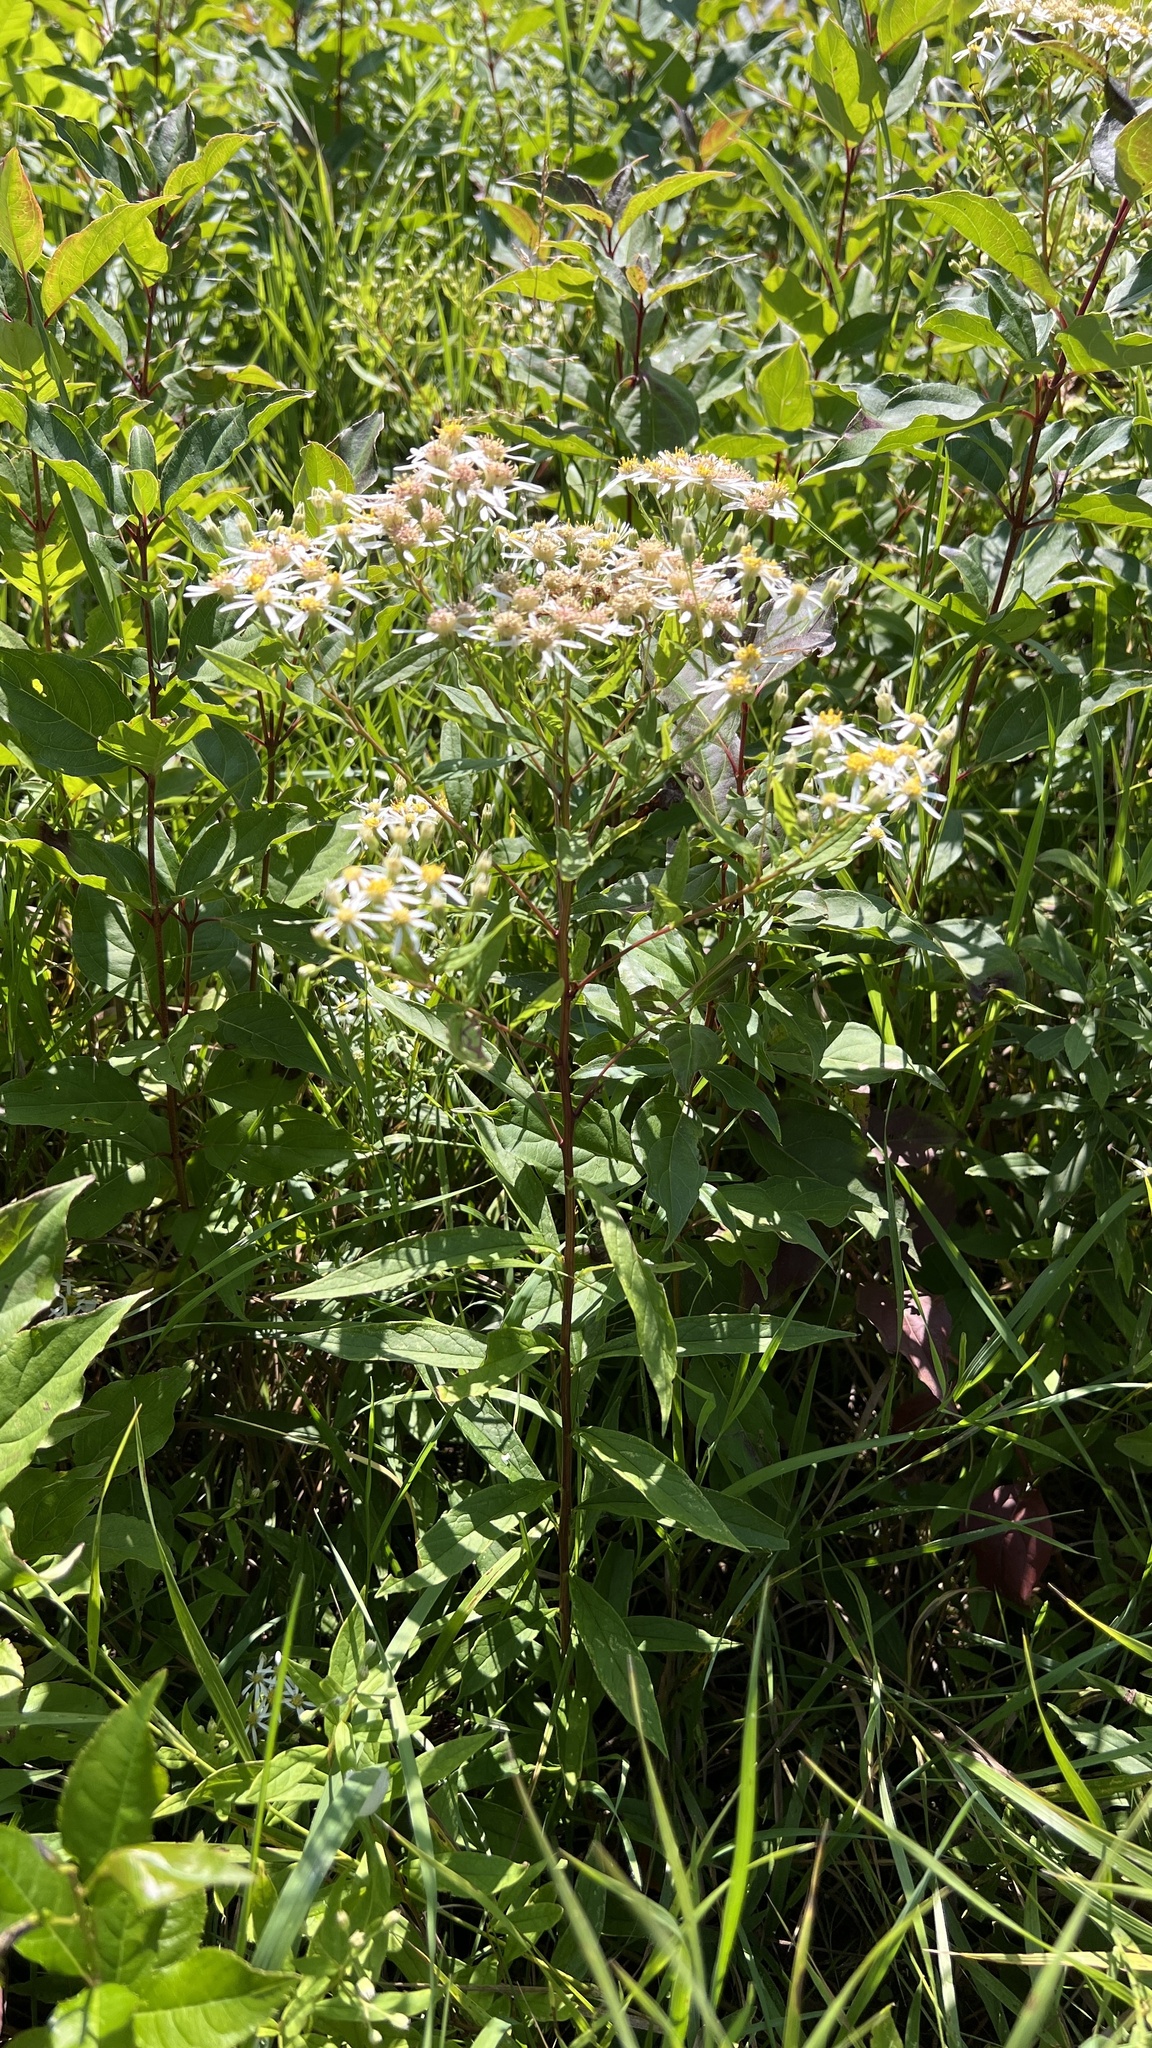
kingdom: Plantae
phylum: Tracheophyta
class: Magnoliopsida
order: Asterales
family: Asteraceae
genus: Doellingeria
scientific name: Doellingeria umbellata
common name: Flat-top white aster
